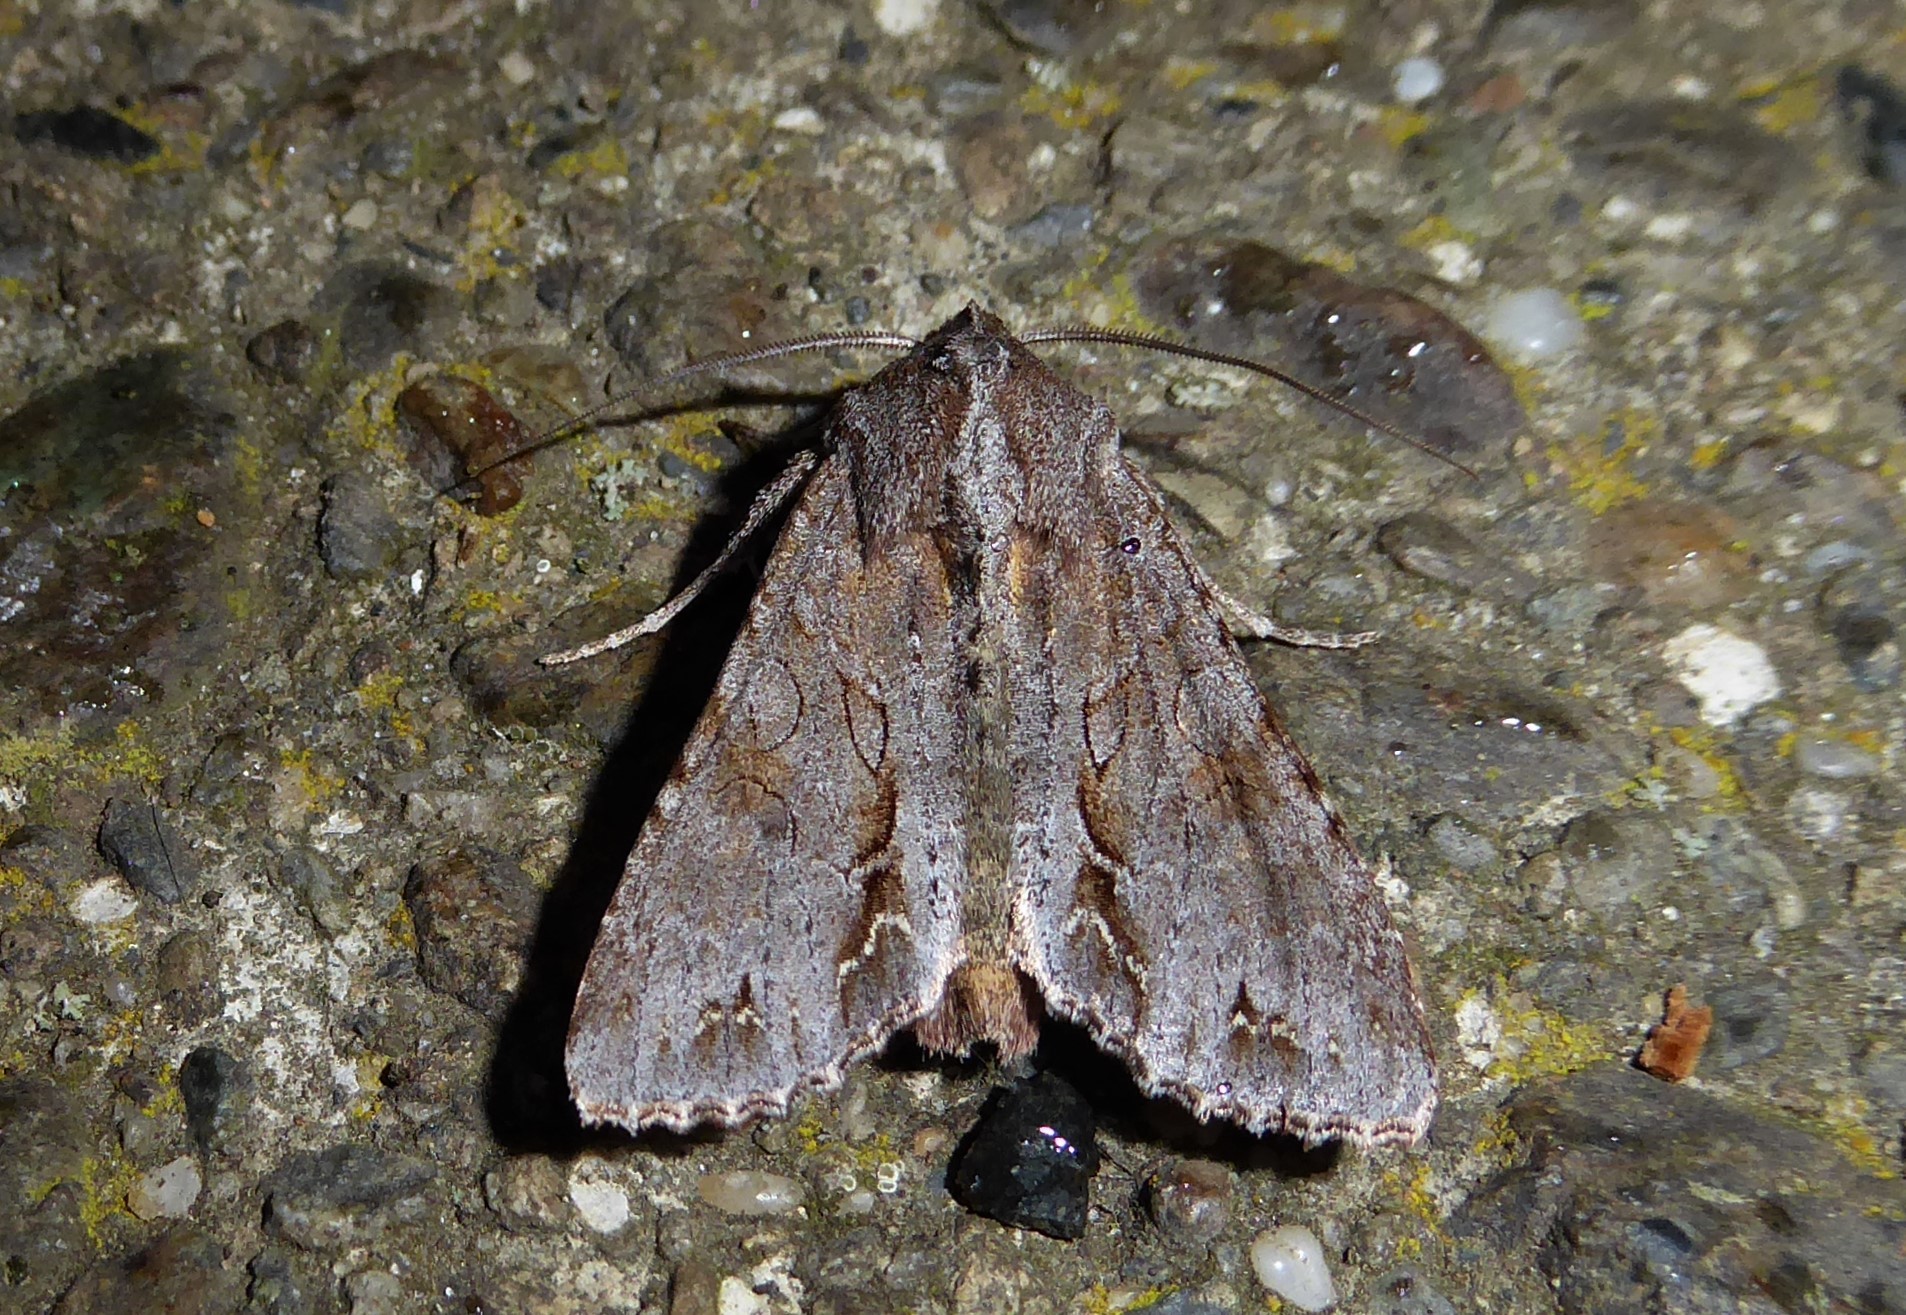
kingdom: Animalia
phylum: Arthropoda
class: Insecta
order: Lepidoptera
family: Noctuidae
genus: Ichneutica
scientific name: Ichneutica
